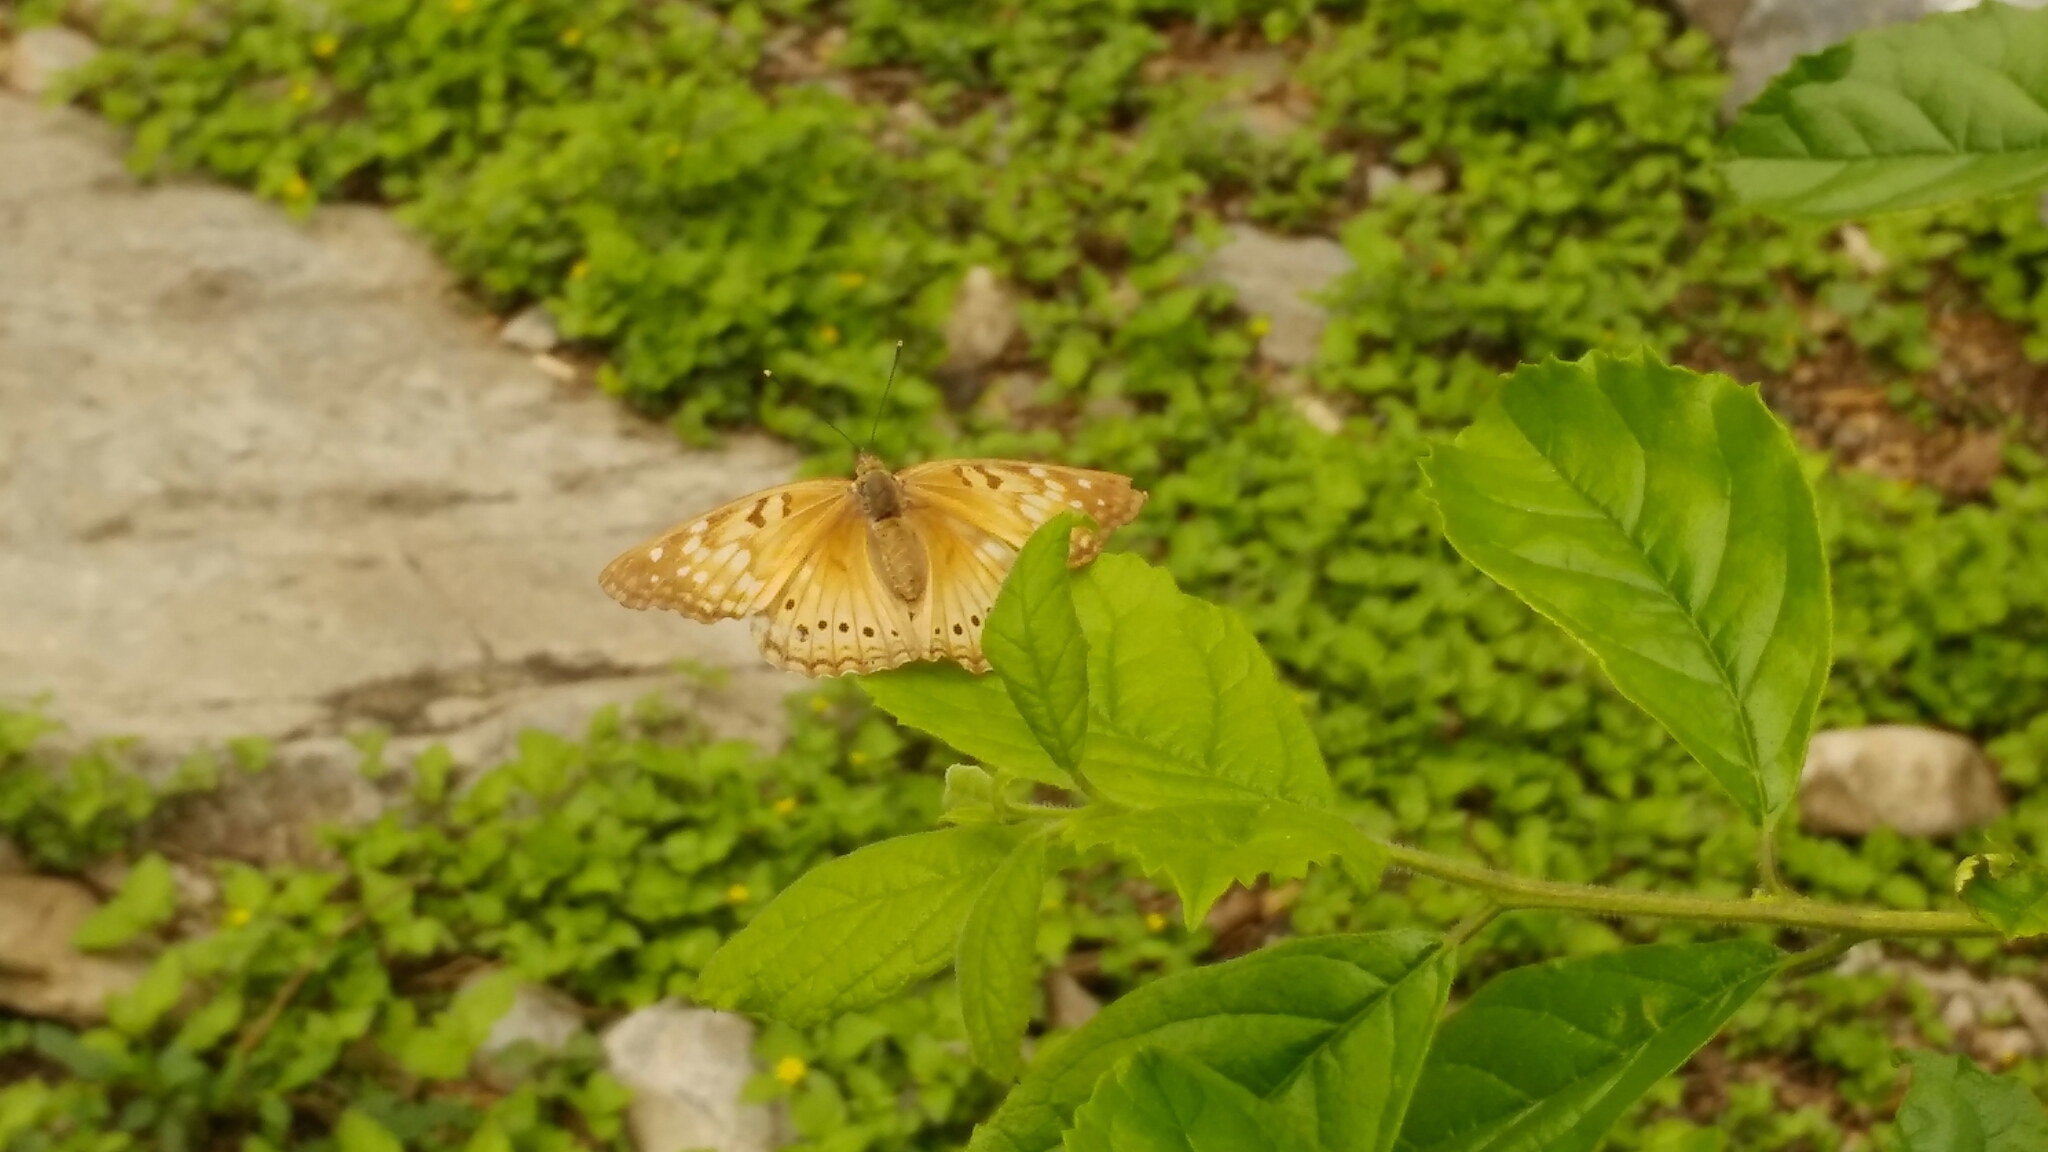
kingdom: Animalia
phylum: Arthropoda
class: Insecta
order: Lepidoptera
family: Nymphalidae
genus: Asterocampa
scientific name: Asterocampa clyton
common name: Tawny emperor
